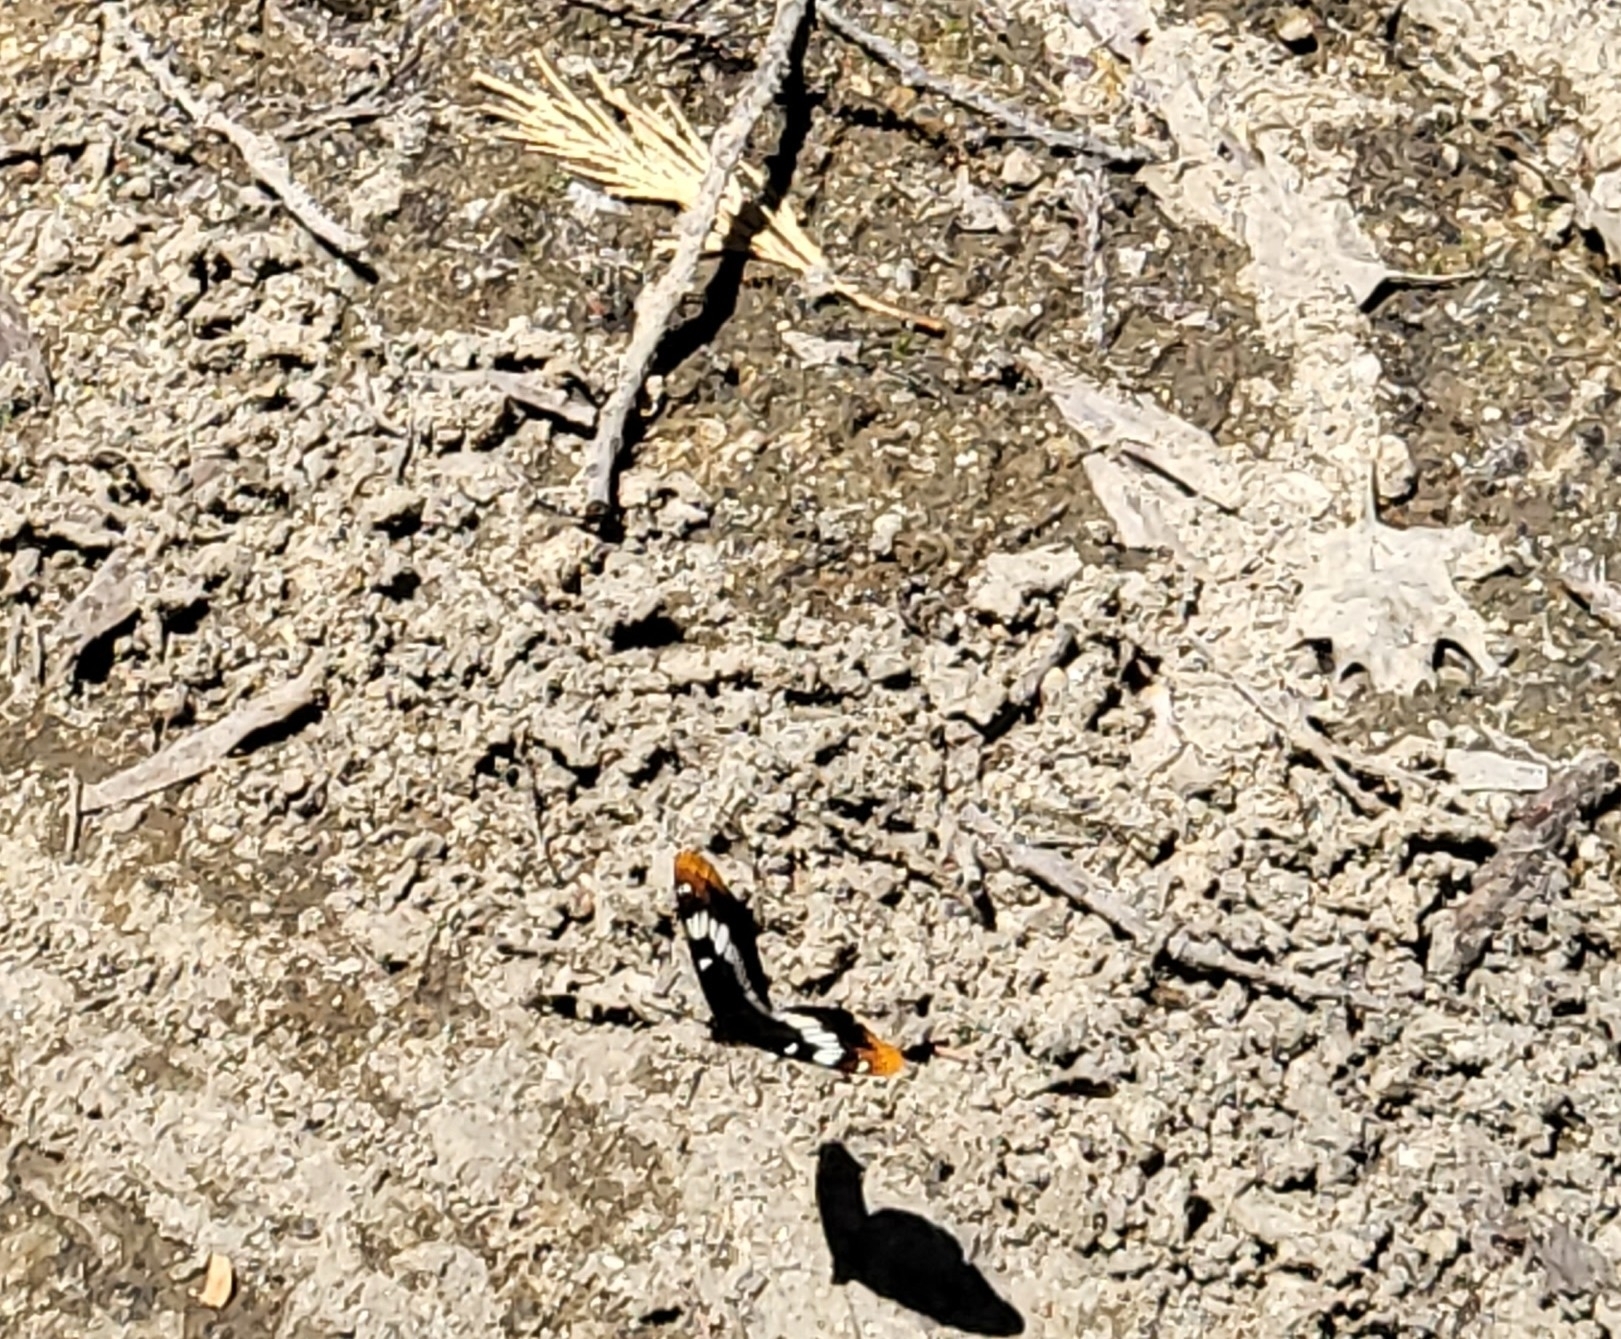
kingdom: Animalia
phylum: Arthropoda
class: Insecta
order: Lepidoptera
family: Nymphalidae
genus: Limenitis
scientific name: Limenitis lorquini
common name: Lorquin's admiral
